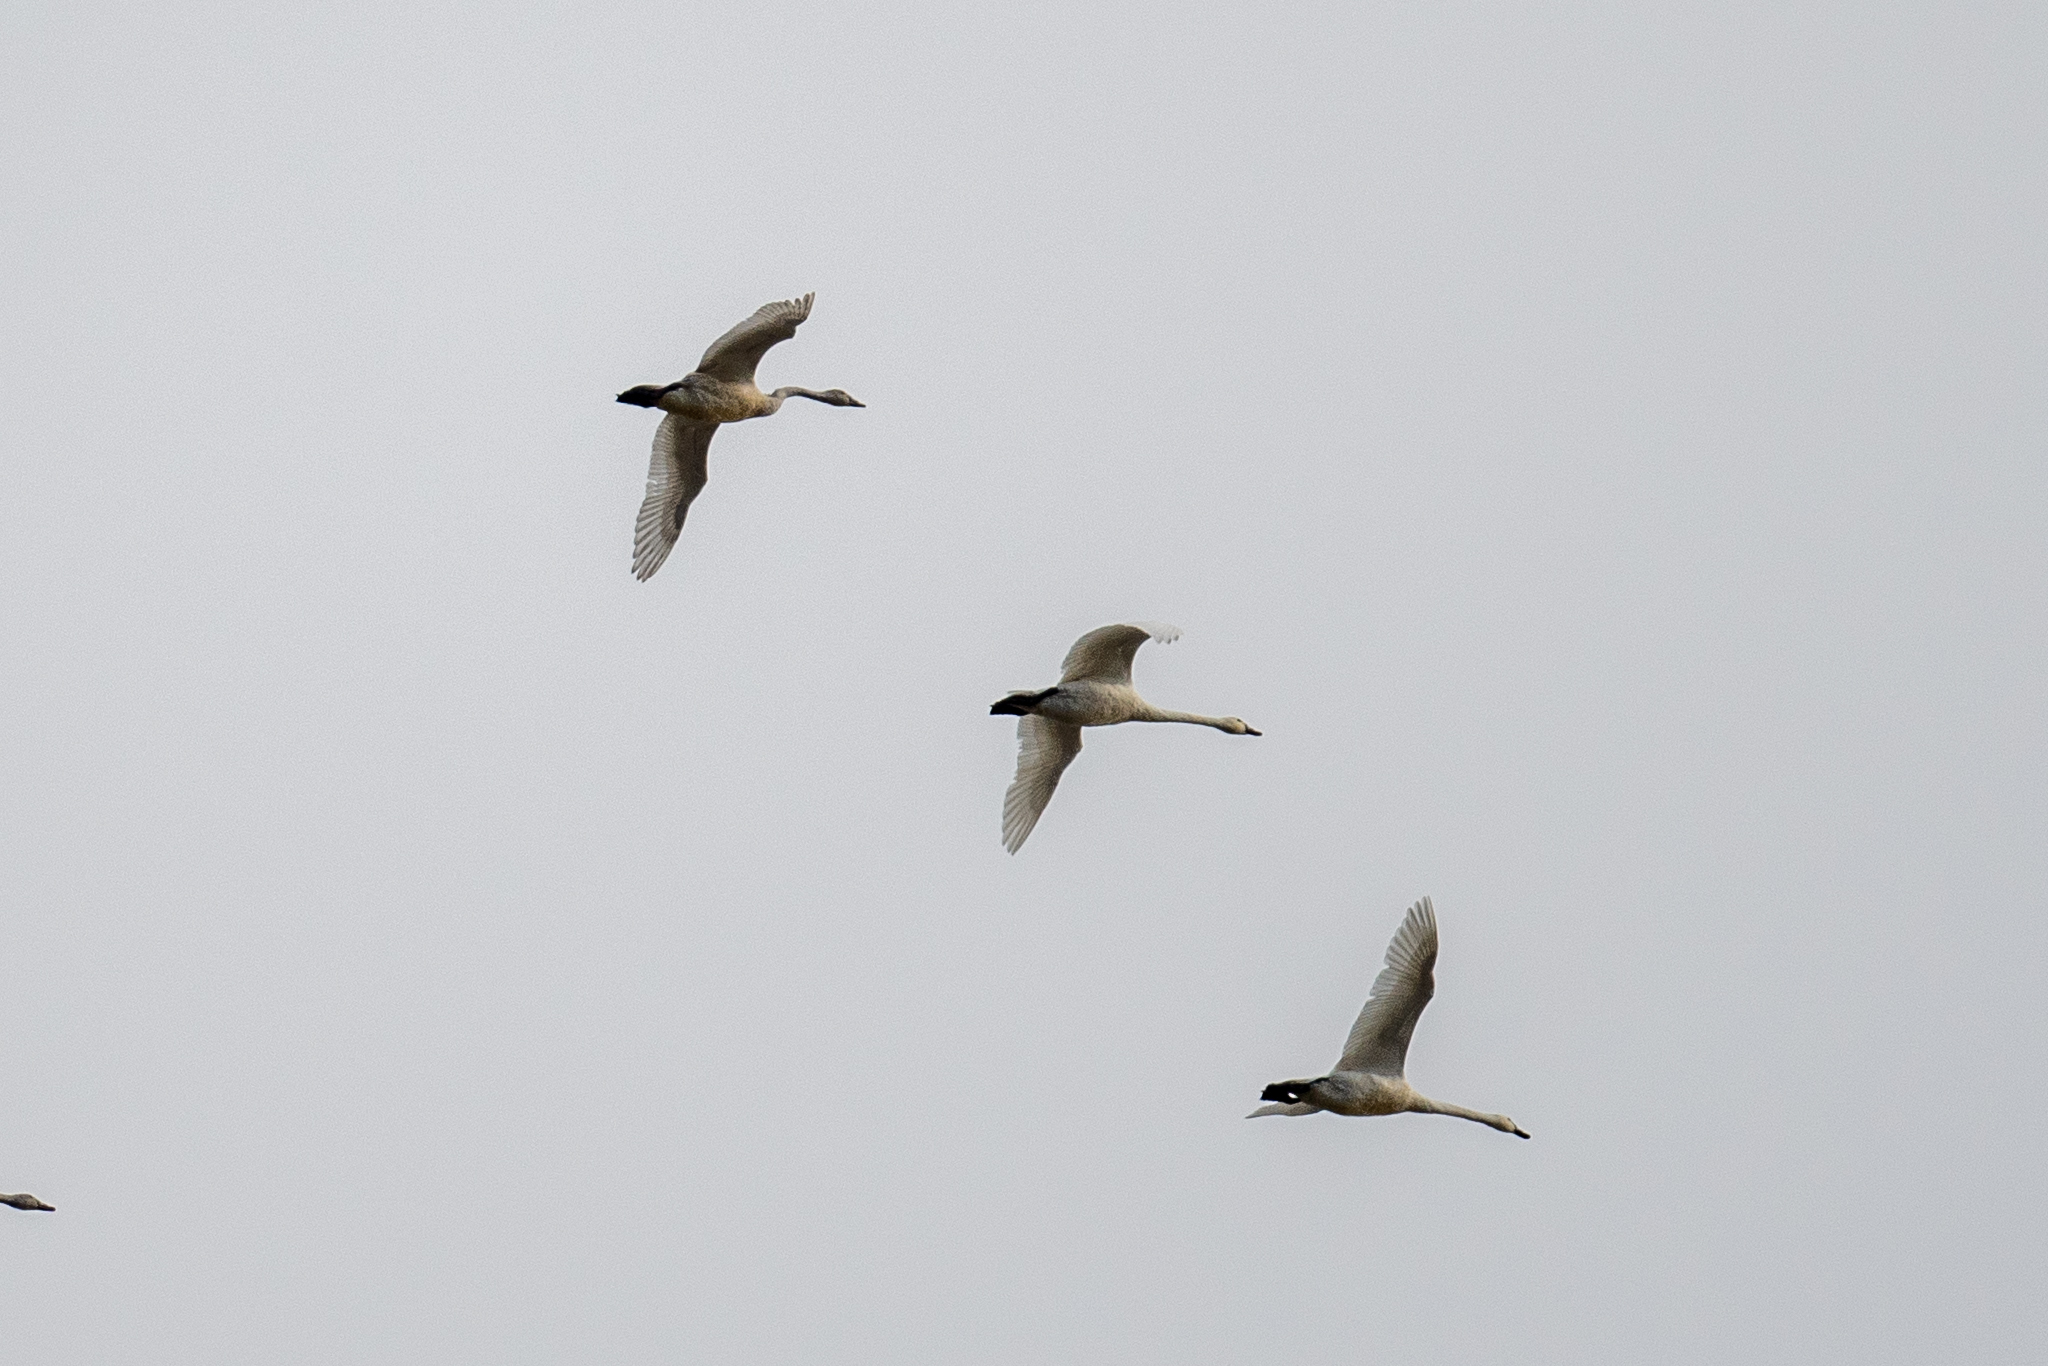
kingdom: Animalia
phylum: Chordata
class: Aves
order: Anseriformes
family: Anatidae
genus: Cygnus
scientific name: Cygnus columbianus
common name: Tundra swan
